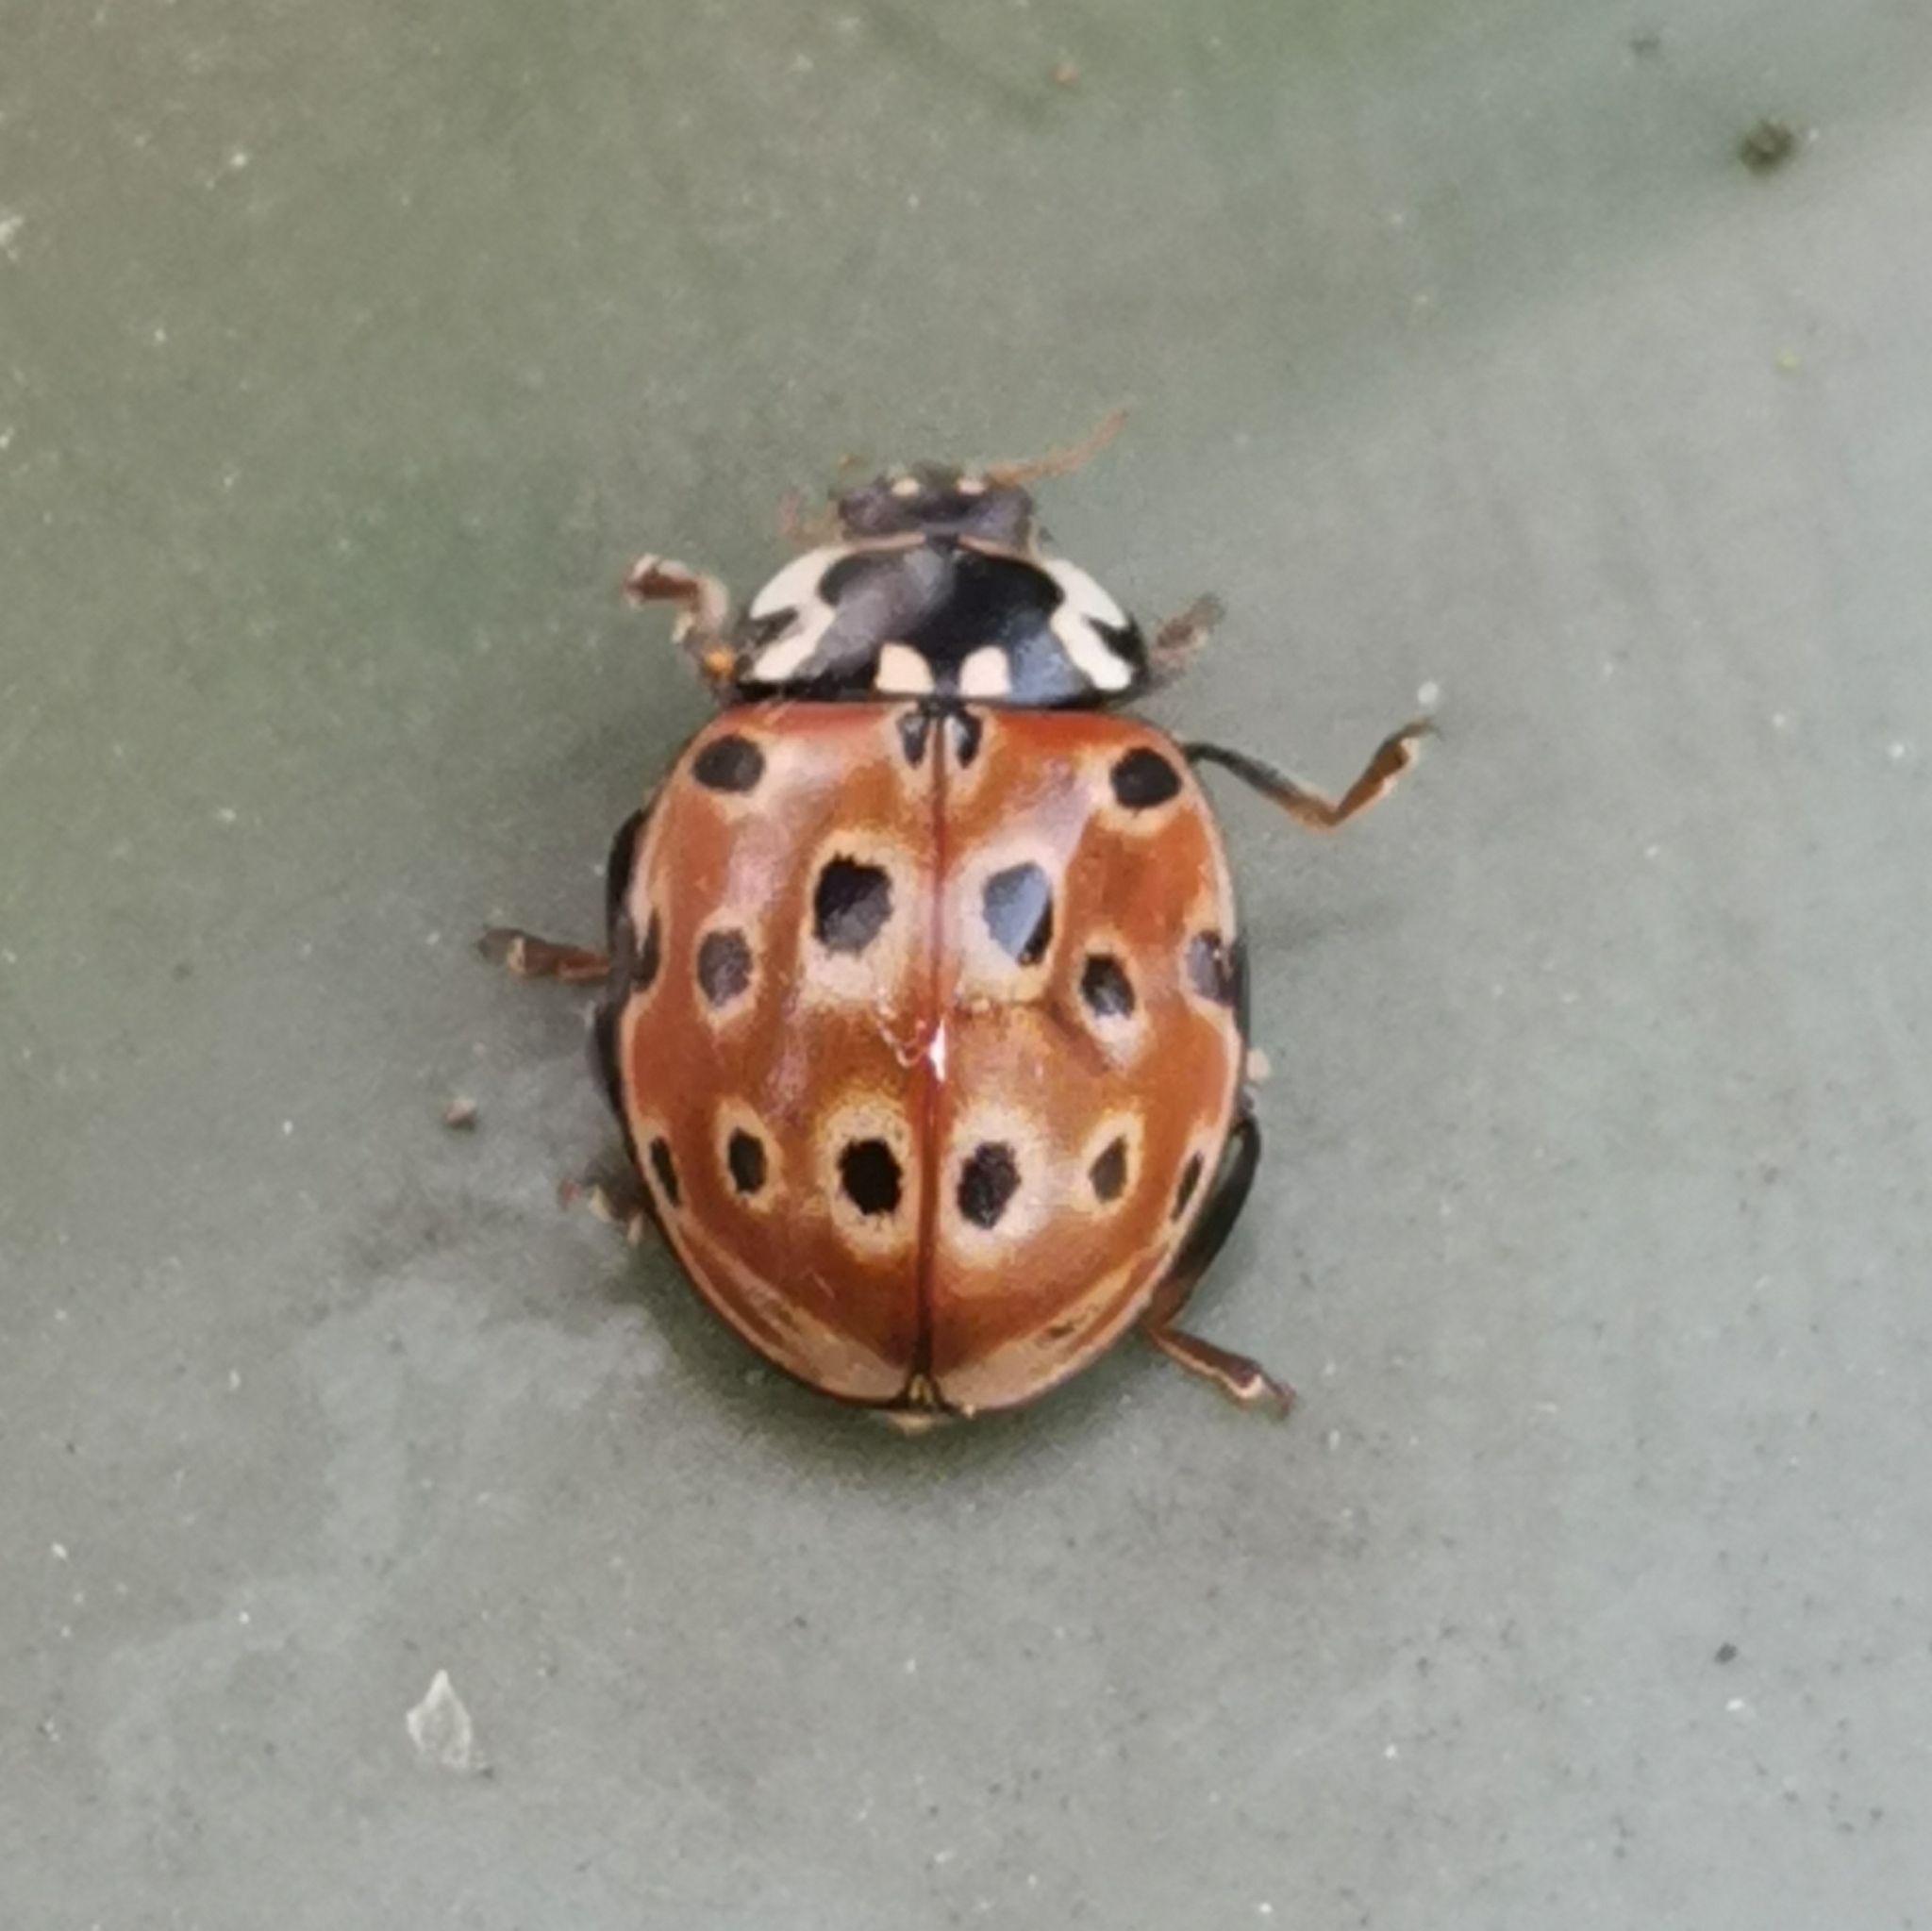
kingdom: Animalia
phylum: Arthropoda
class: Insecta
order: Coleoptera
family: Coccinellidae
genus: Anatis
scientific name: Anatis ocellata
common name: Eyed ladybird
